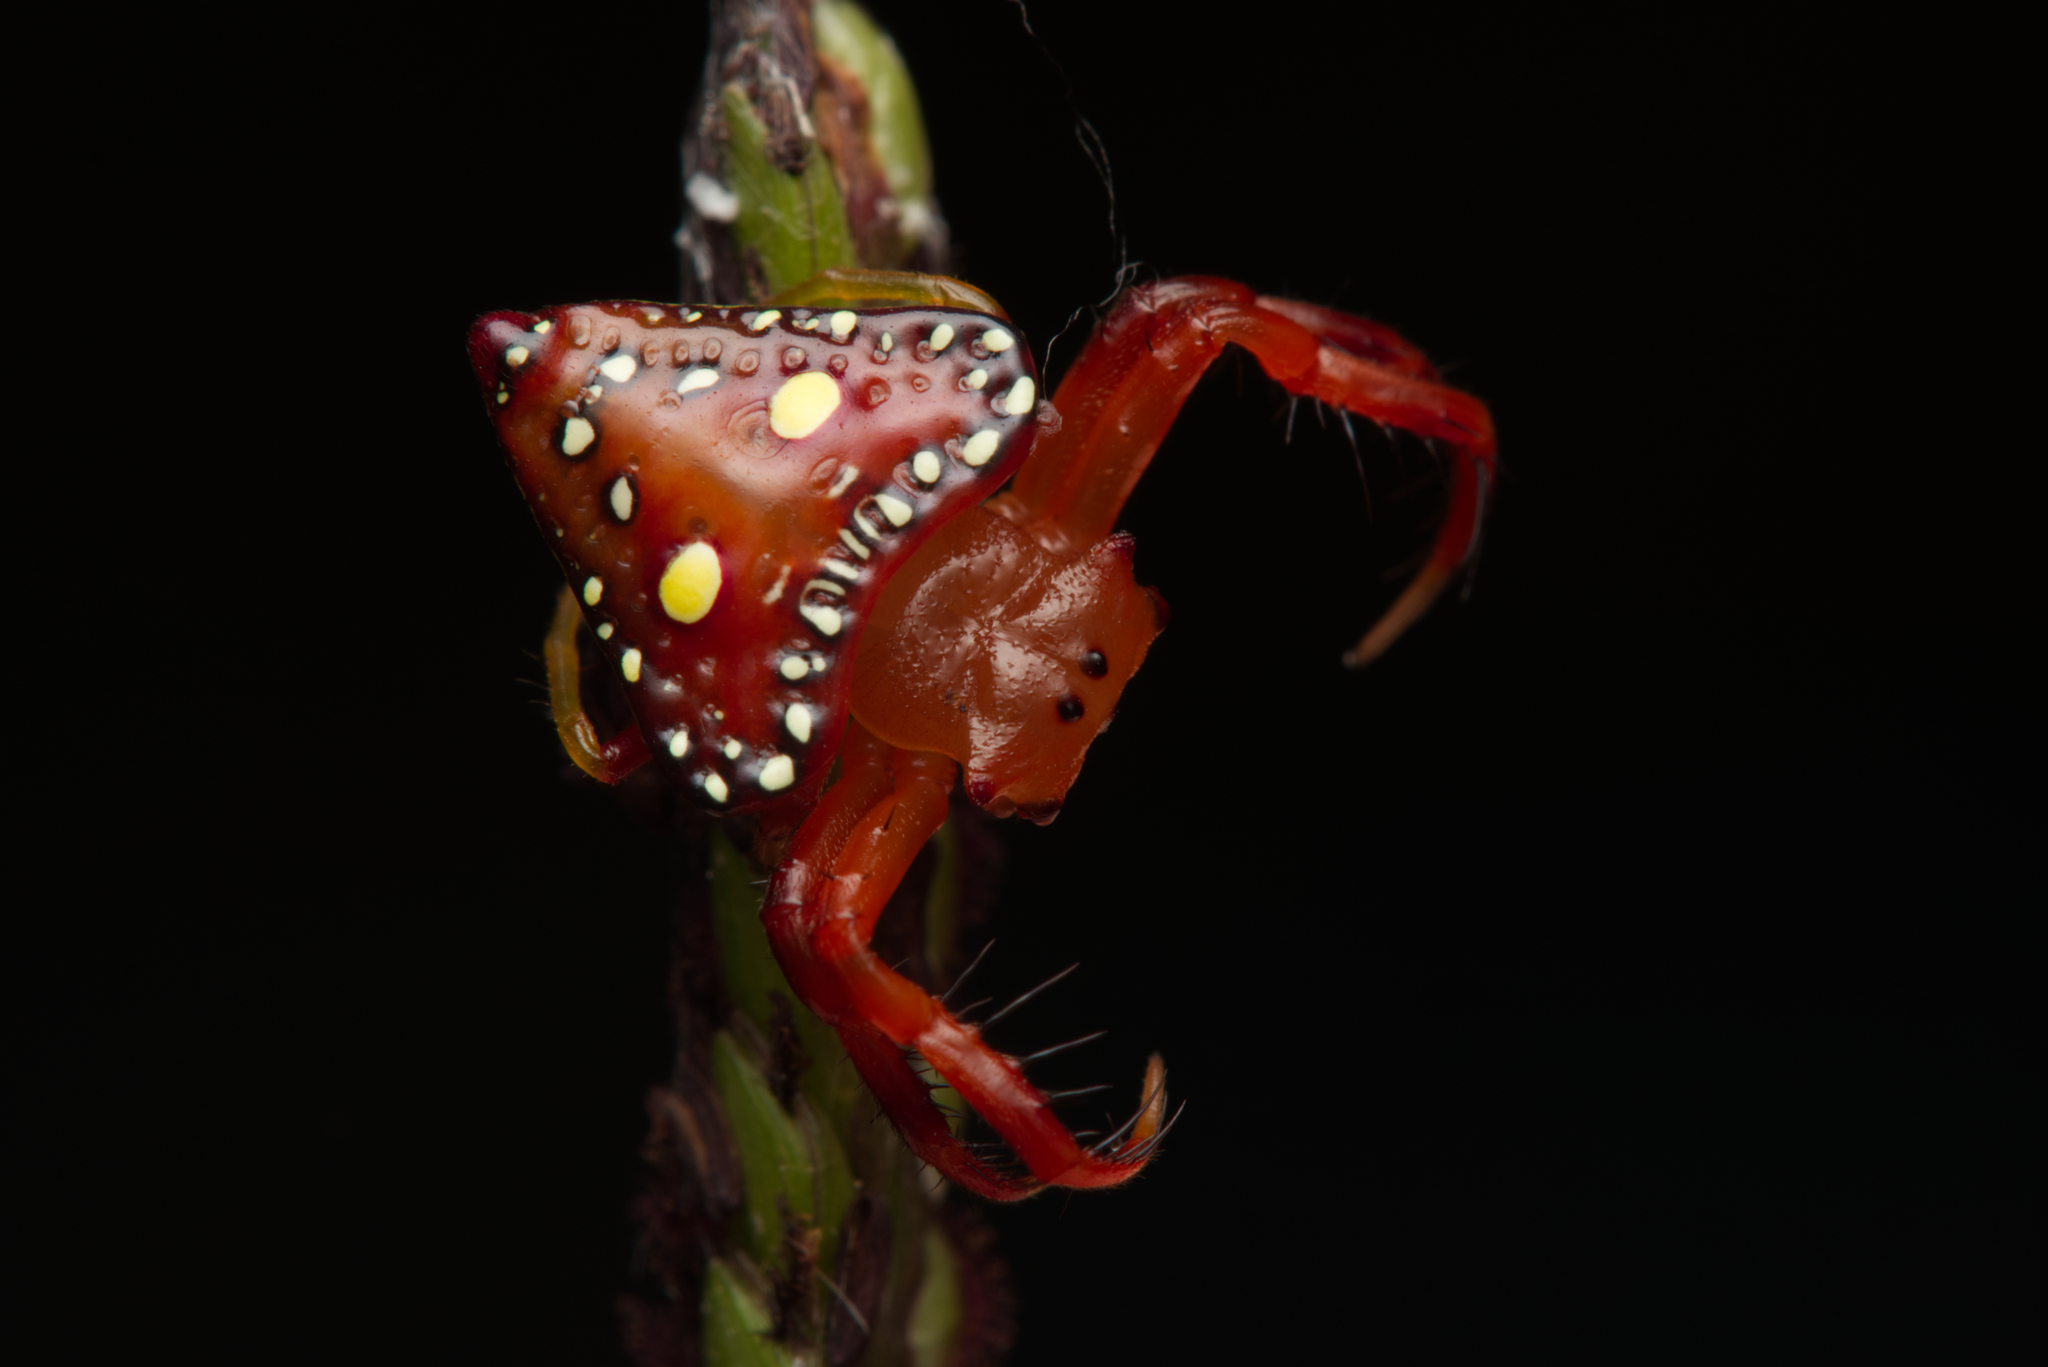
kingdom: Animalia
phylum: Arthropoda
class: Arachnida
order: Araneae
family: Arkyidae
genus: Arkys
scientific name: Arkys lancearius
